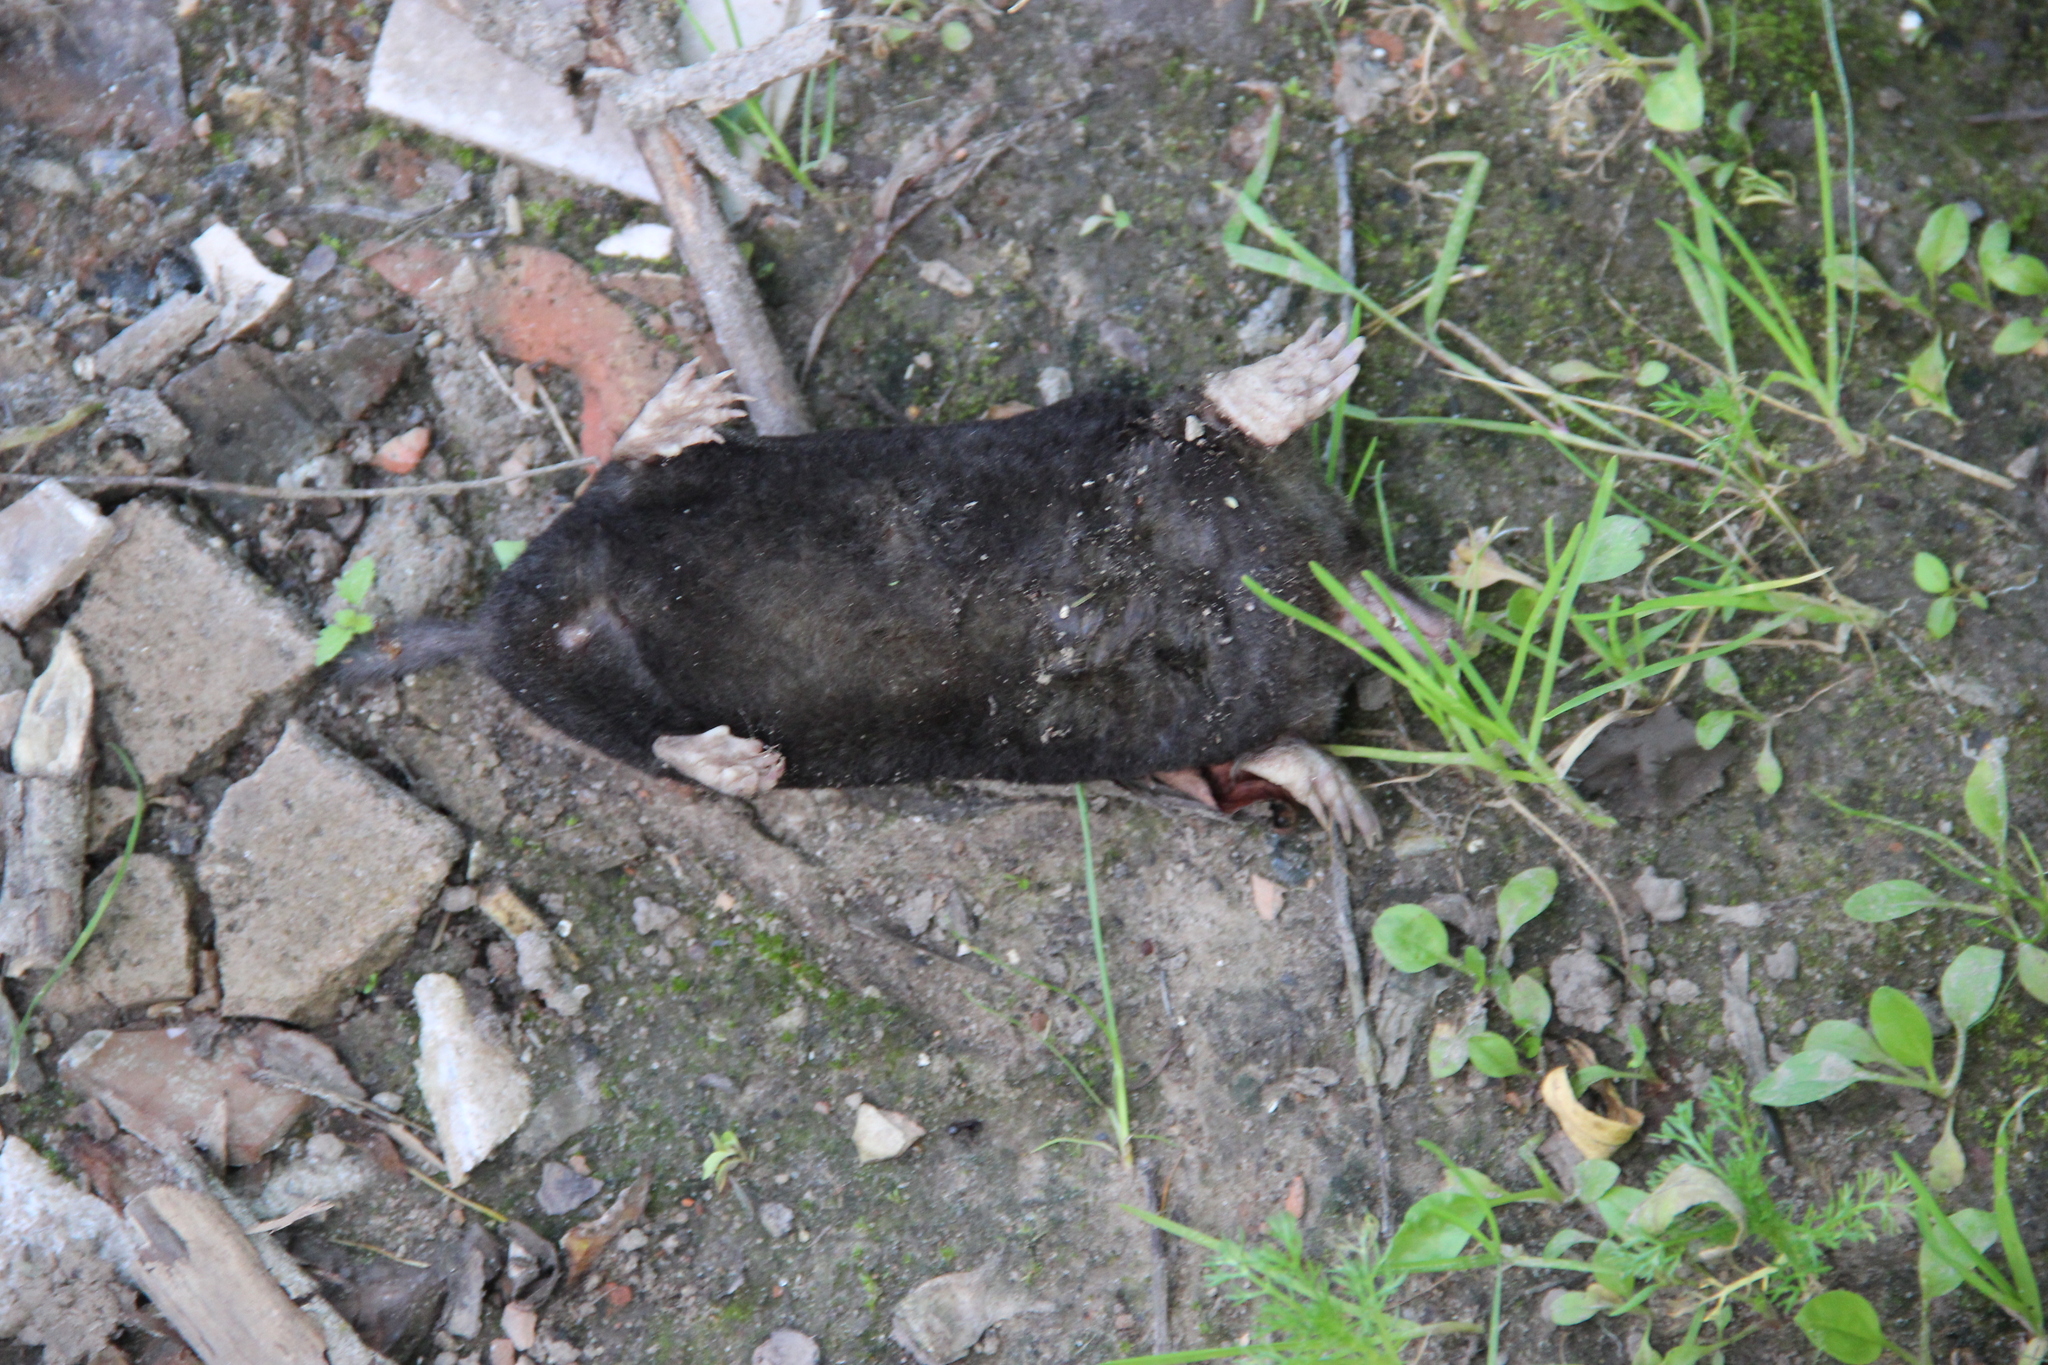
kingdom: Animalia
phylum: Chordata
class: Mammalia
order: Soricomorpha
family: Talpidae
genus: Talpa
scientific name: Talpa europaea
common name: European mole
